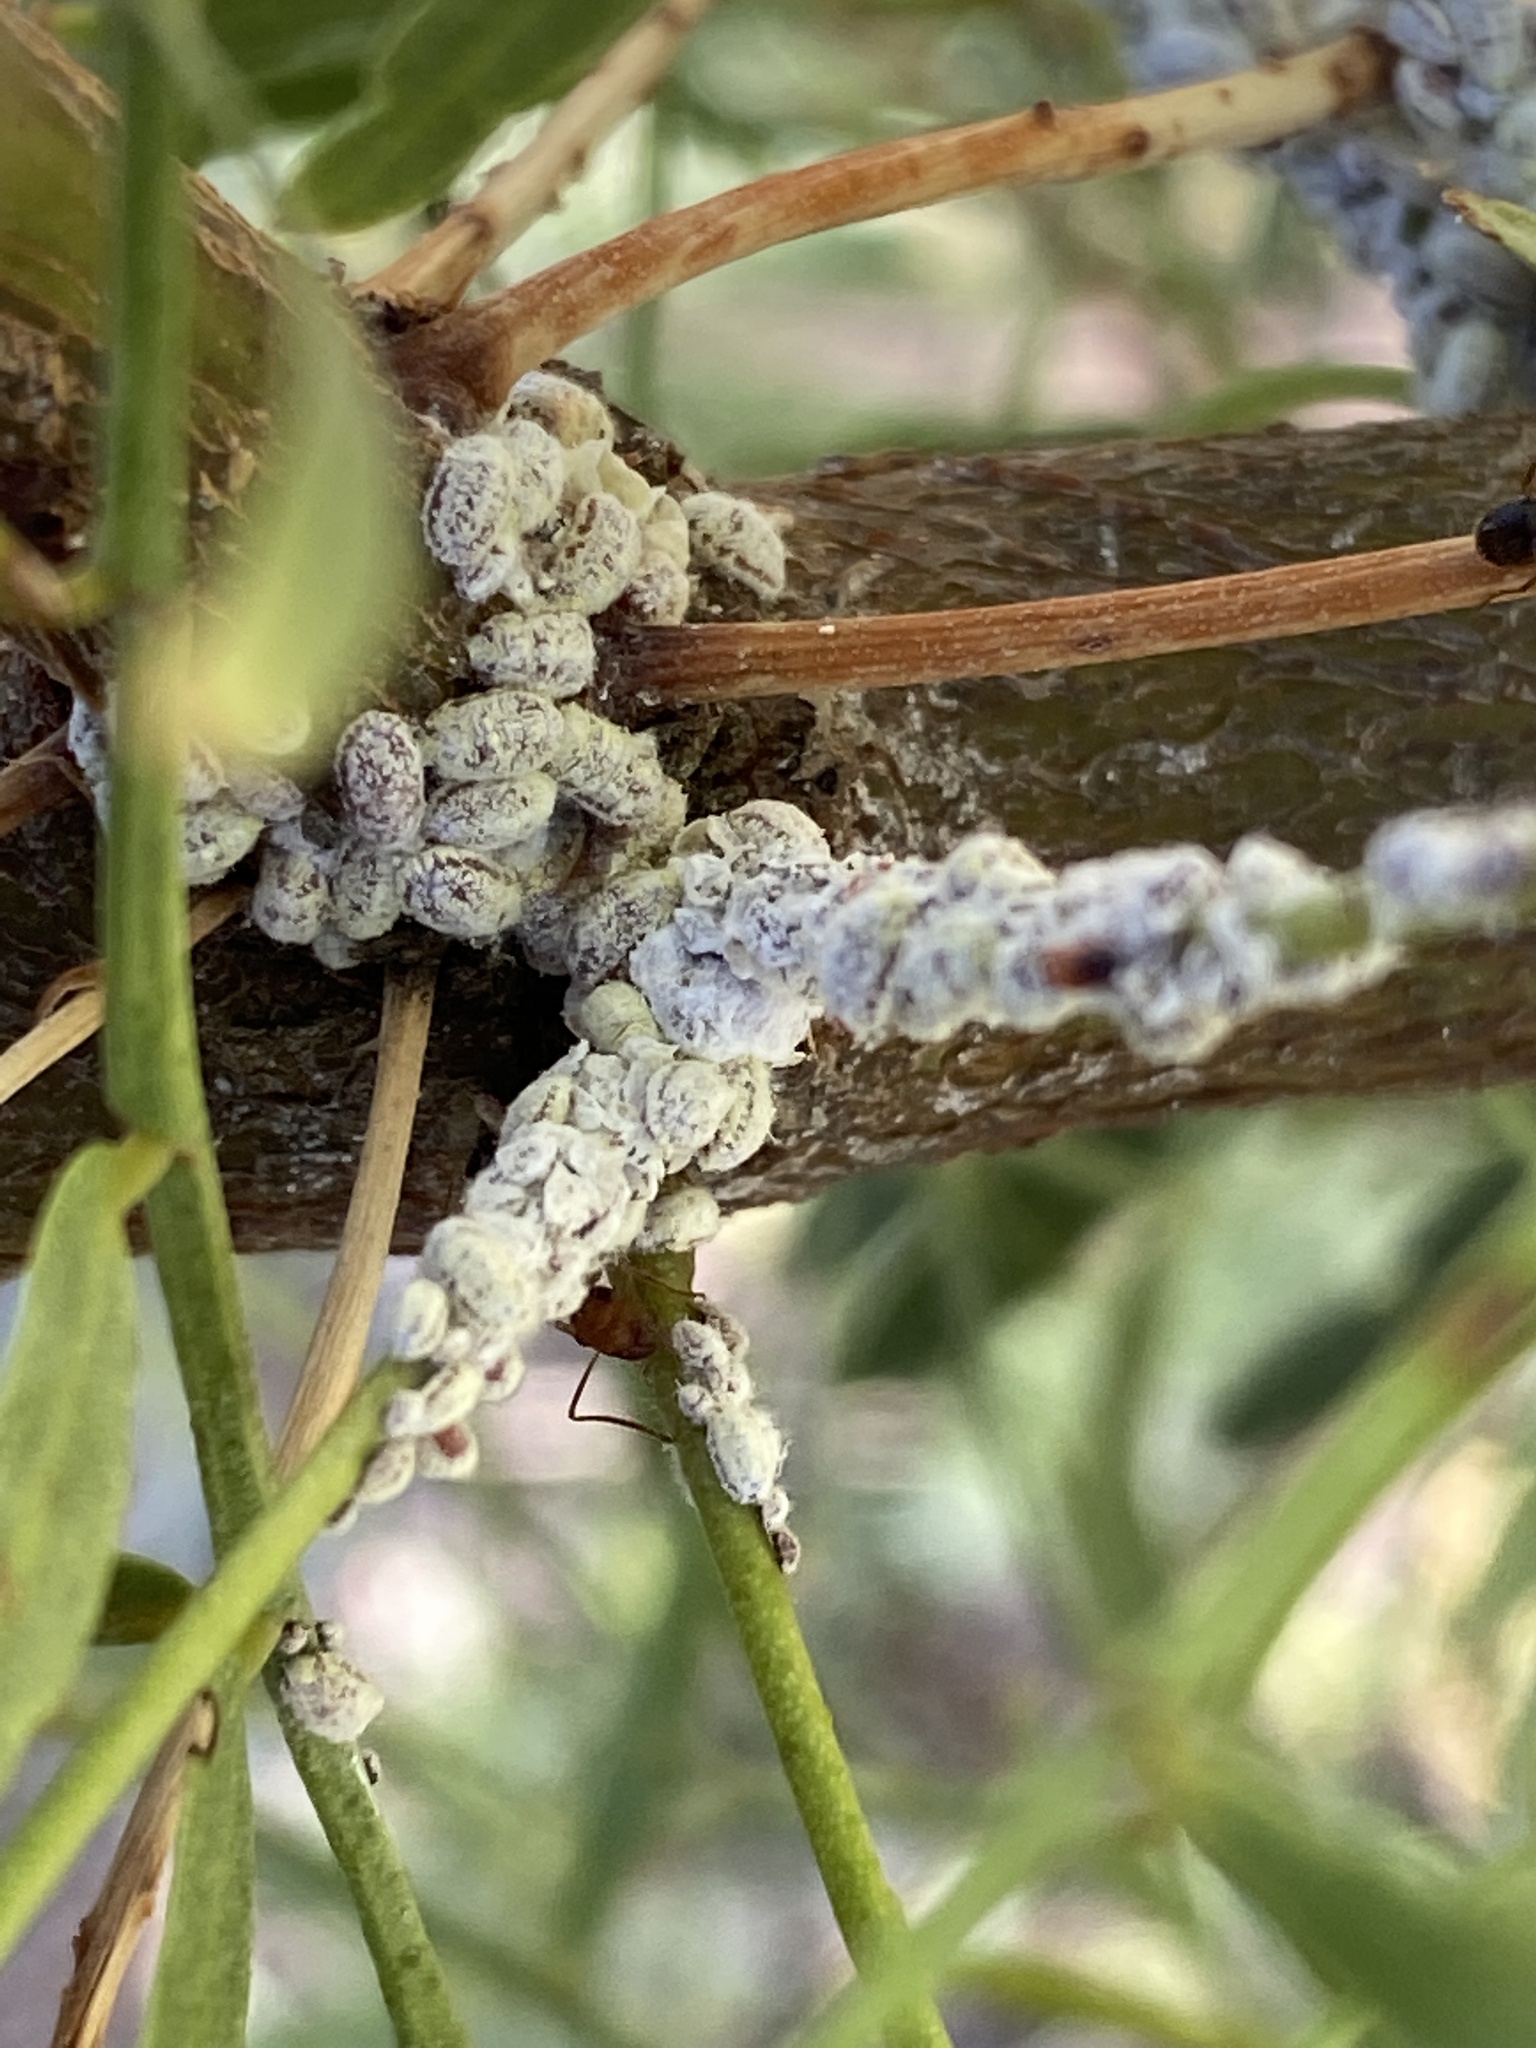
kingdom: Animalia
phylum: Arthropoda
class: Insecta
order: Hemiptera
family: Margarodidae
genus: Crypticerya
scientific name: Crypticerya rileyi
